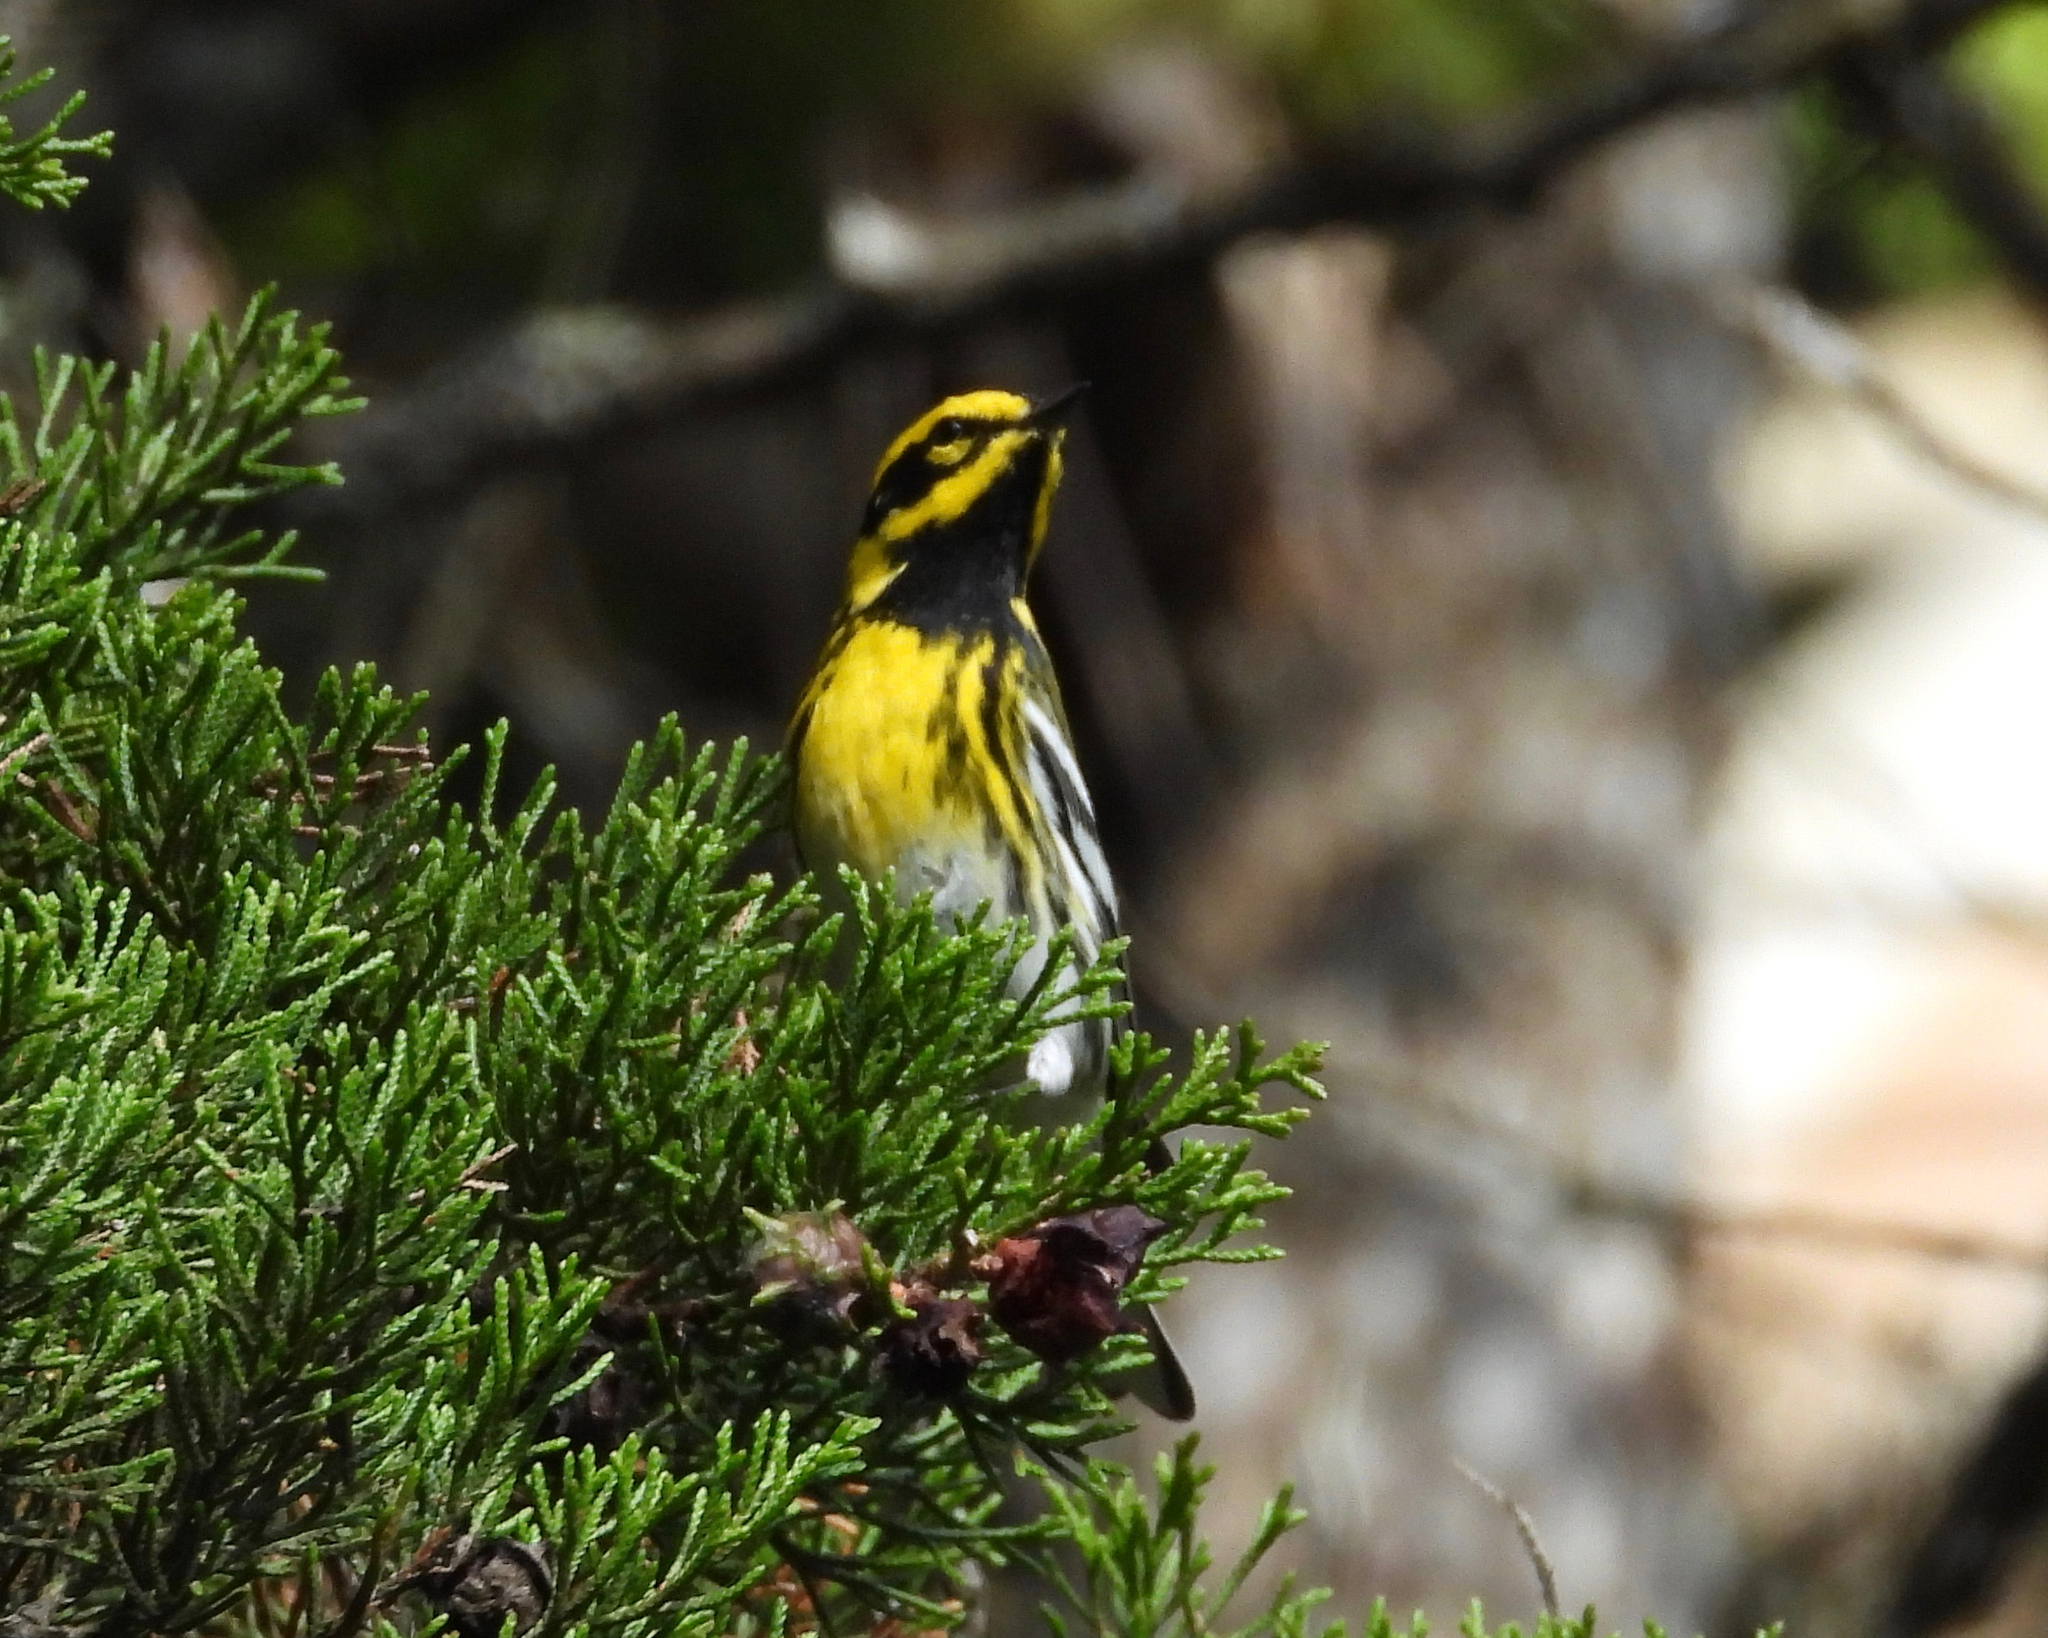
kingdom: Animalia
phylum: Chordata
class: Aves
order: Passeriformes
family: Parulidae
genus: Setophaga
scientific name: Setophaga townsendi
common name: Townsend's warbler
